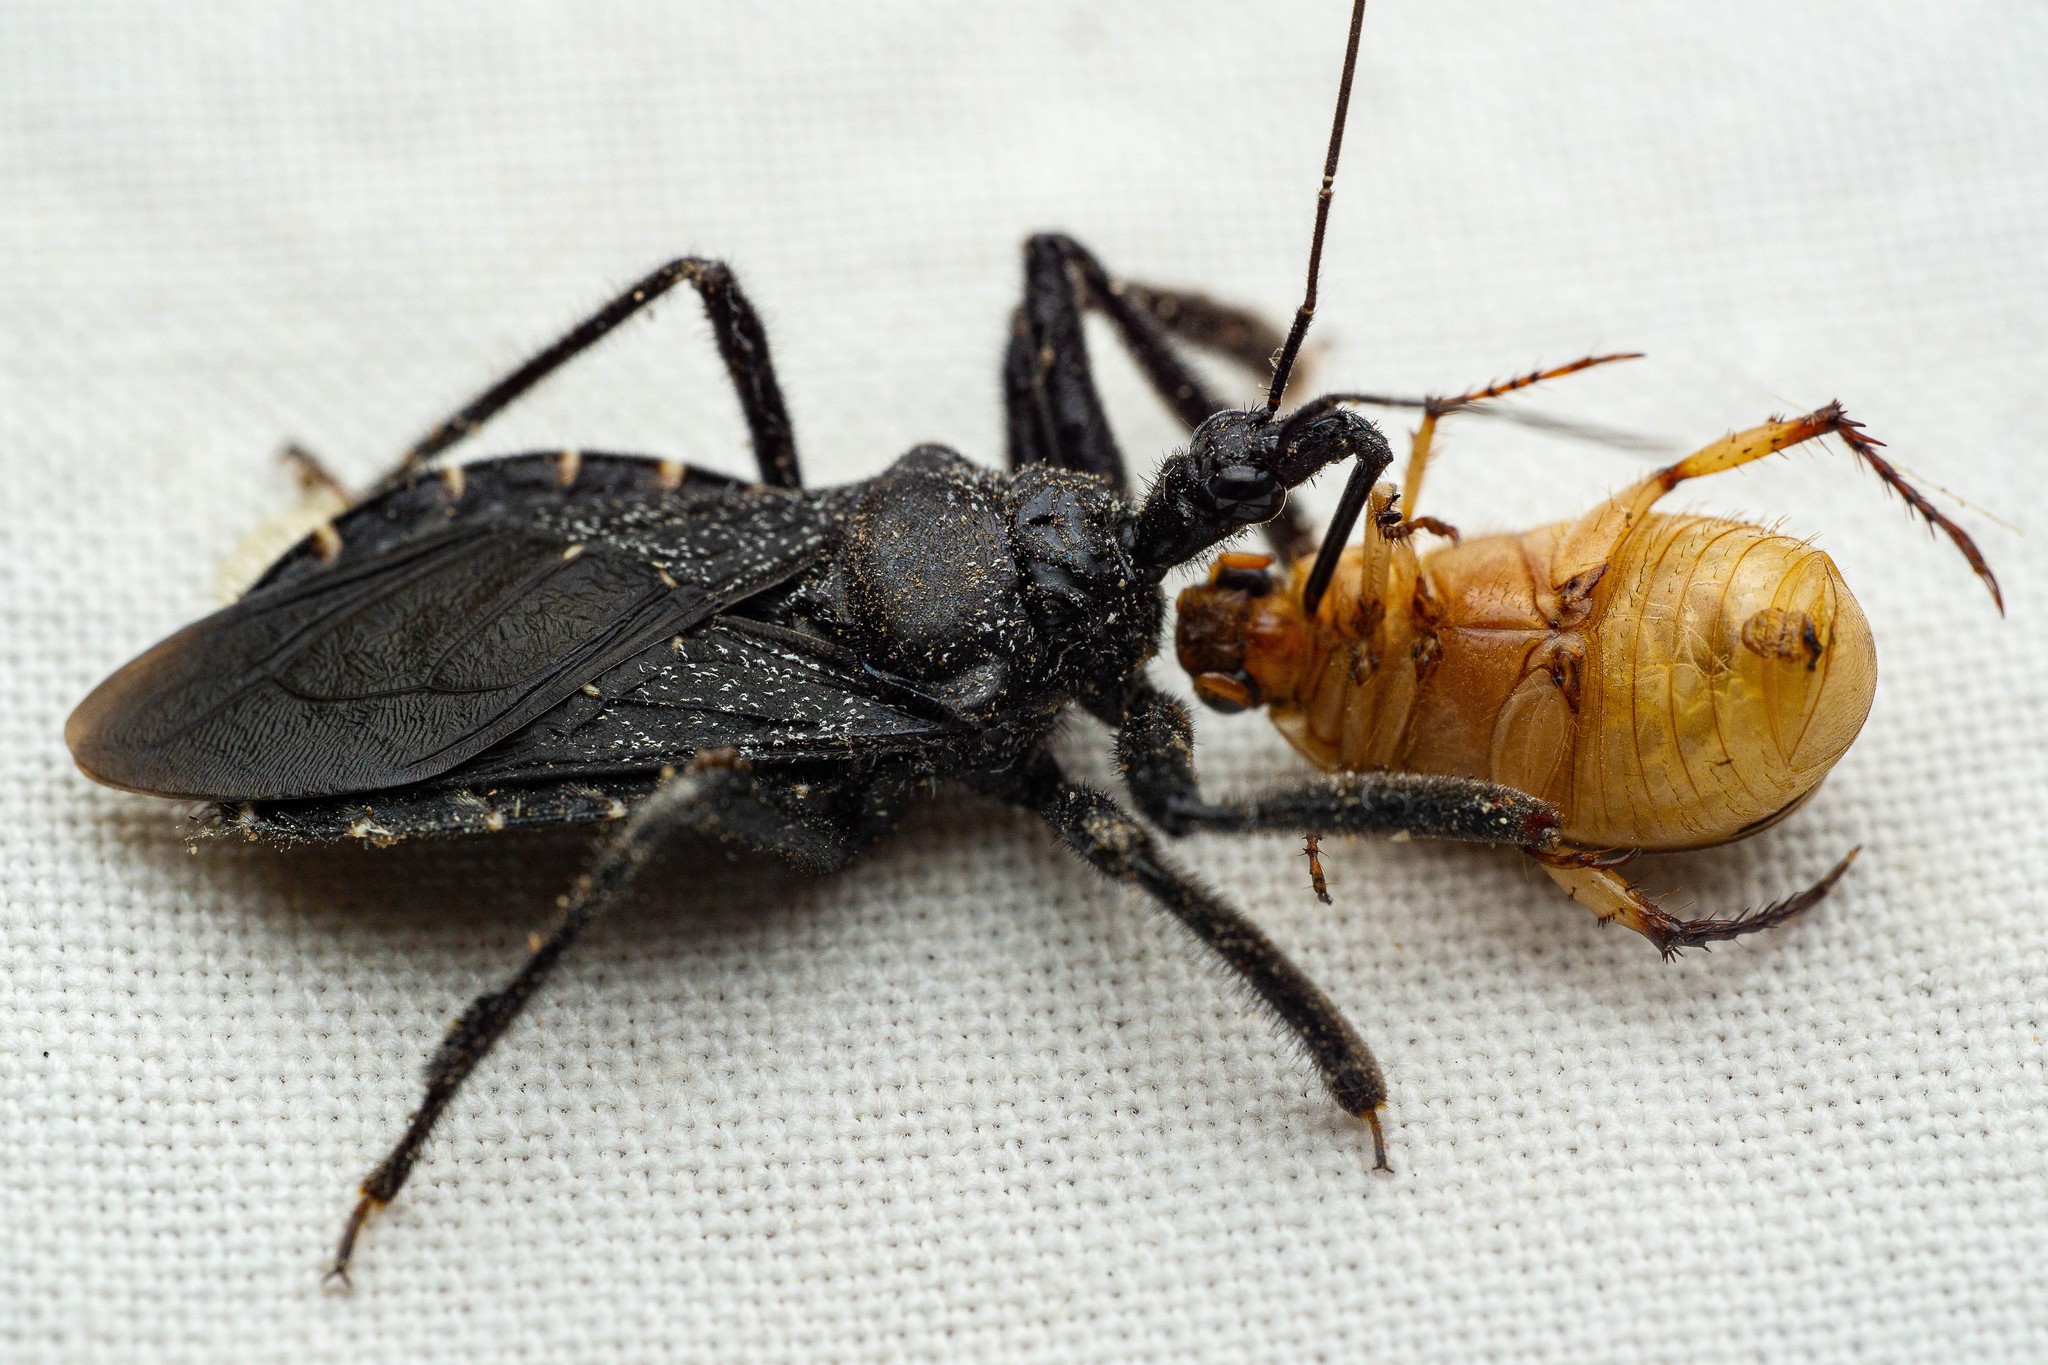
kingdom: Animalia
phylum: Arthropoda
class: Insecta
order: Hemiptera
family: Reduviidae
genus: Apiomerus
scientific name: Apiomerus longispinis
